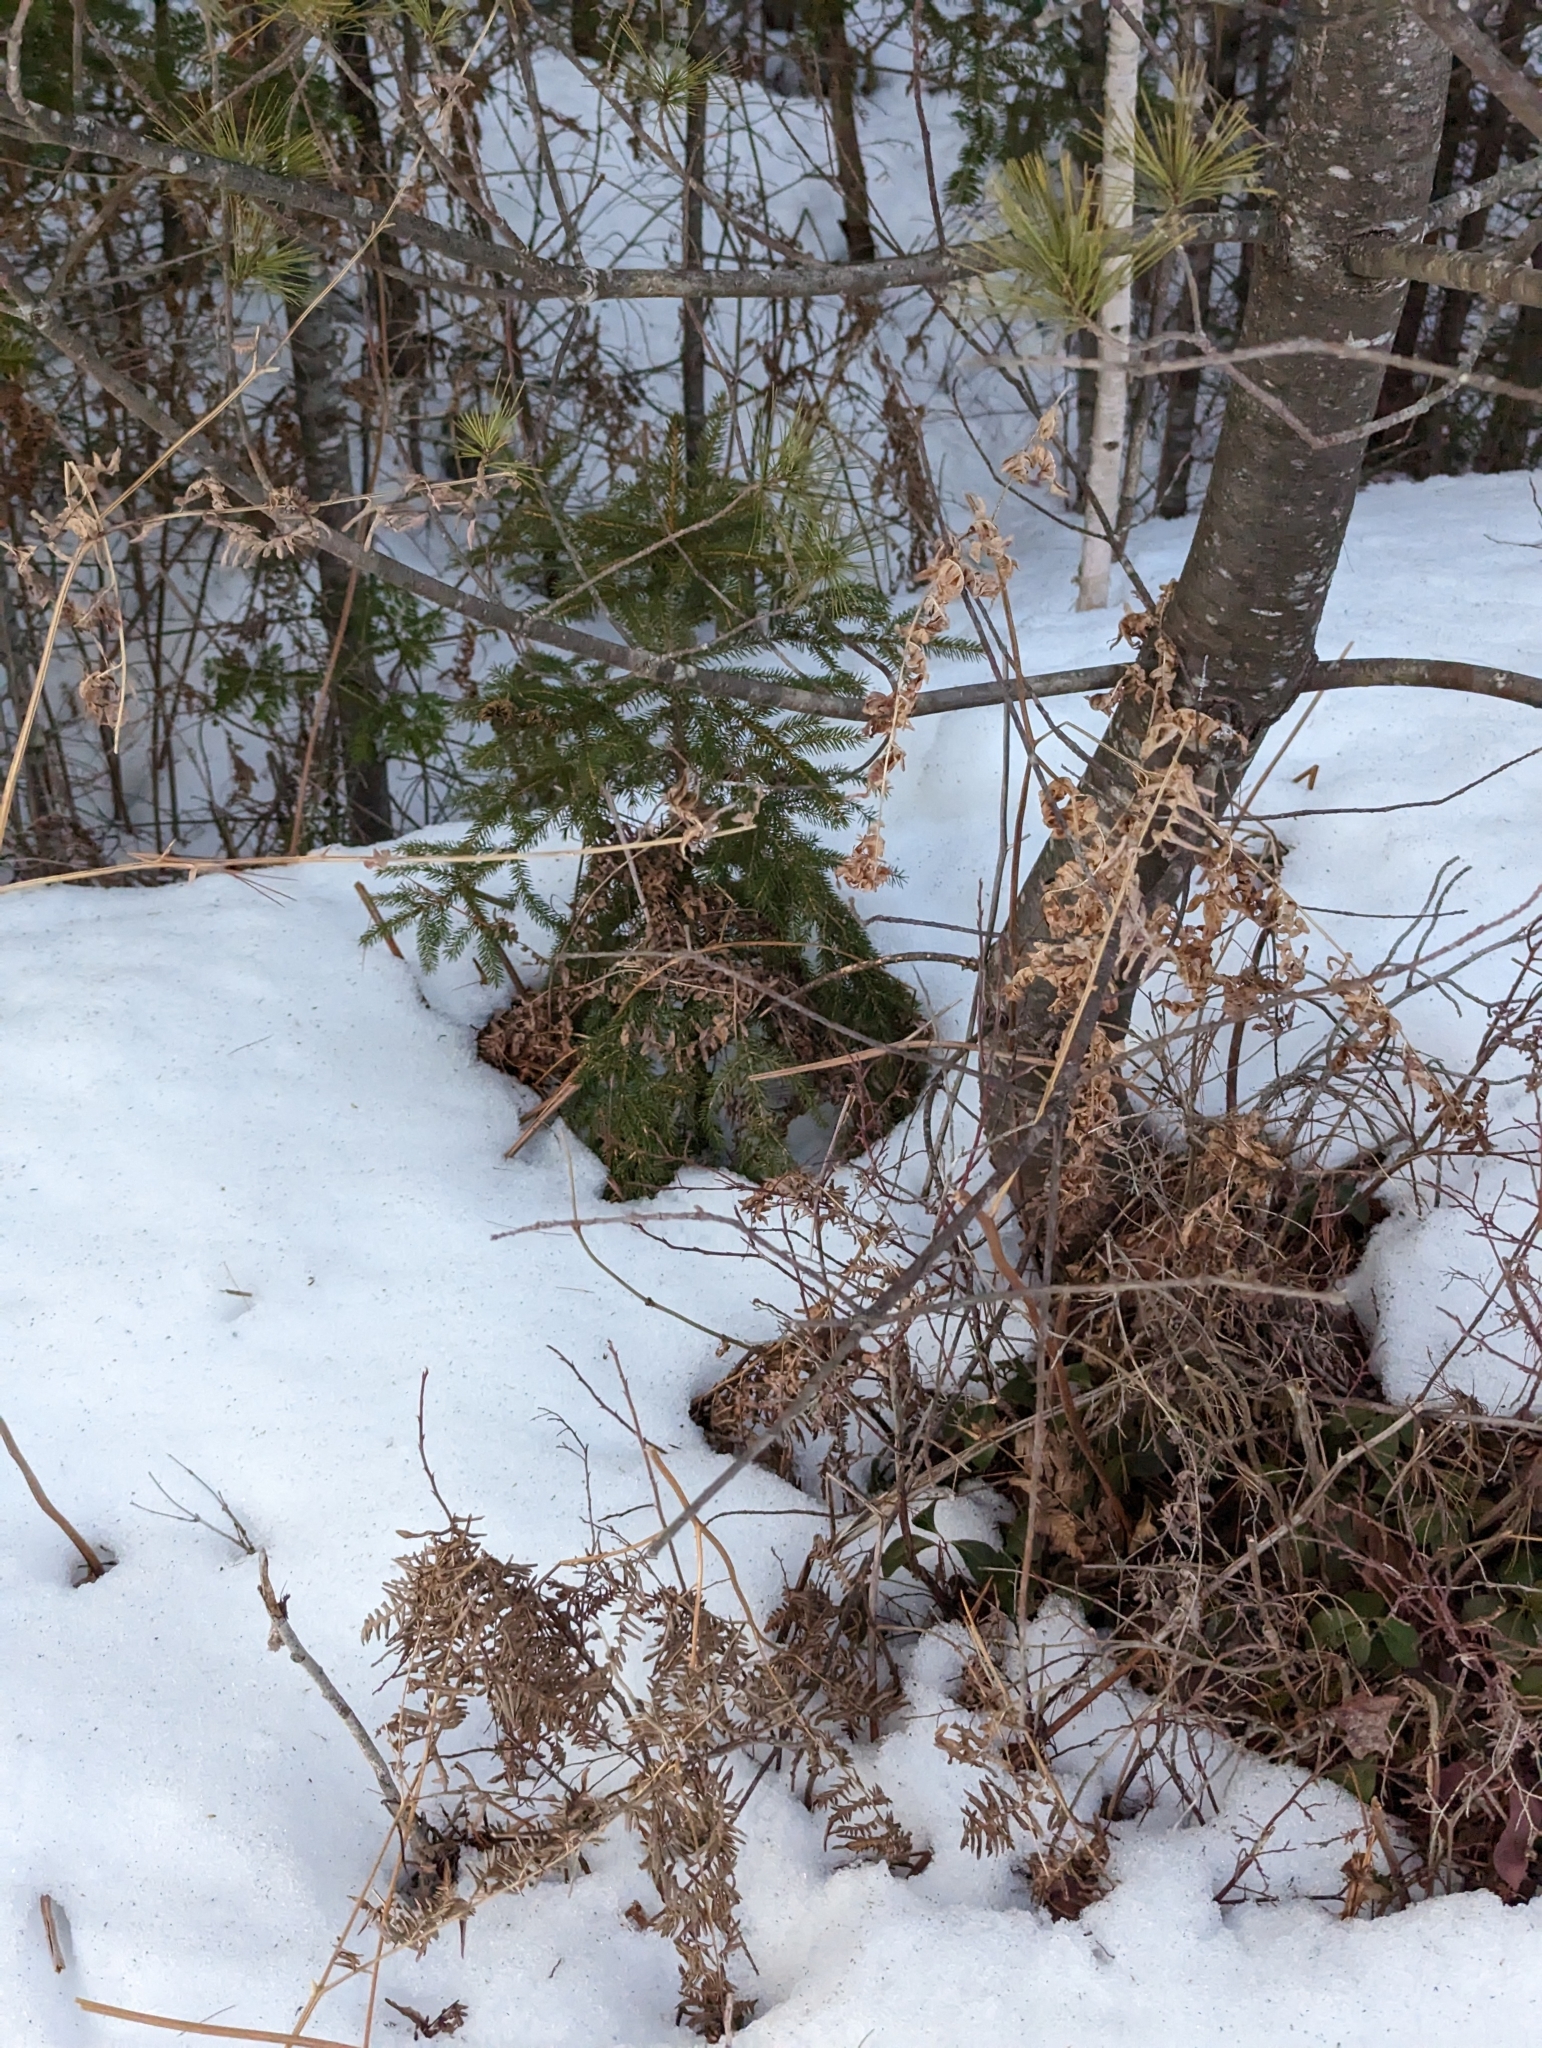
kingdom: Plantae
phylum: Tracheophyta
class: Polypodiopsida
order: Polypodiales
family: Dennstaedtiaceae
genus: Pteridium
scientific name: Pteridium aquilinum
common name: Bracken
